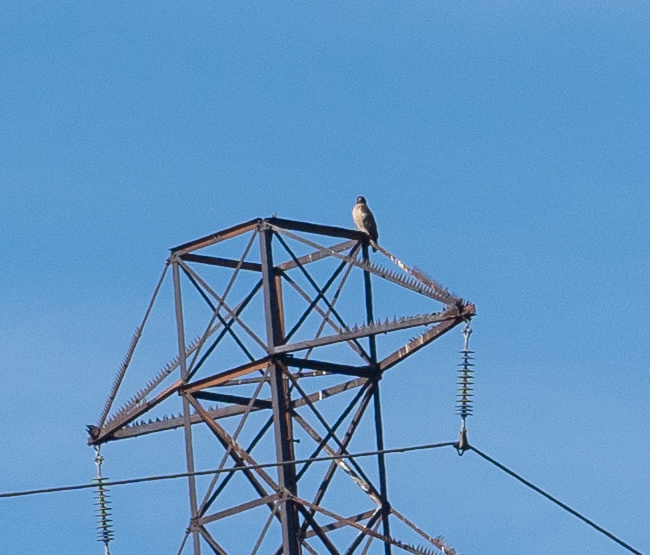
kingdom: Animalia
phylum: Chordata
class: Aves
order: Accipitriformes
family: Accipitridae
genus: Buteo
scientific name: Buteo jamaicensis
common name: Red-tailed hawk
